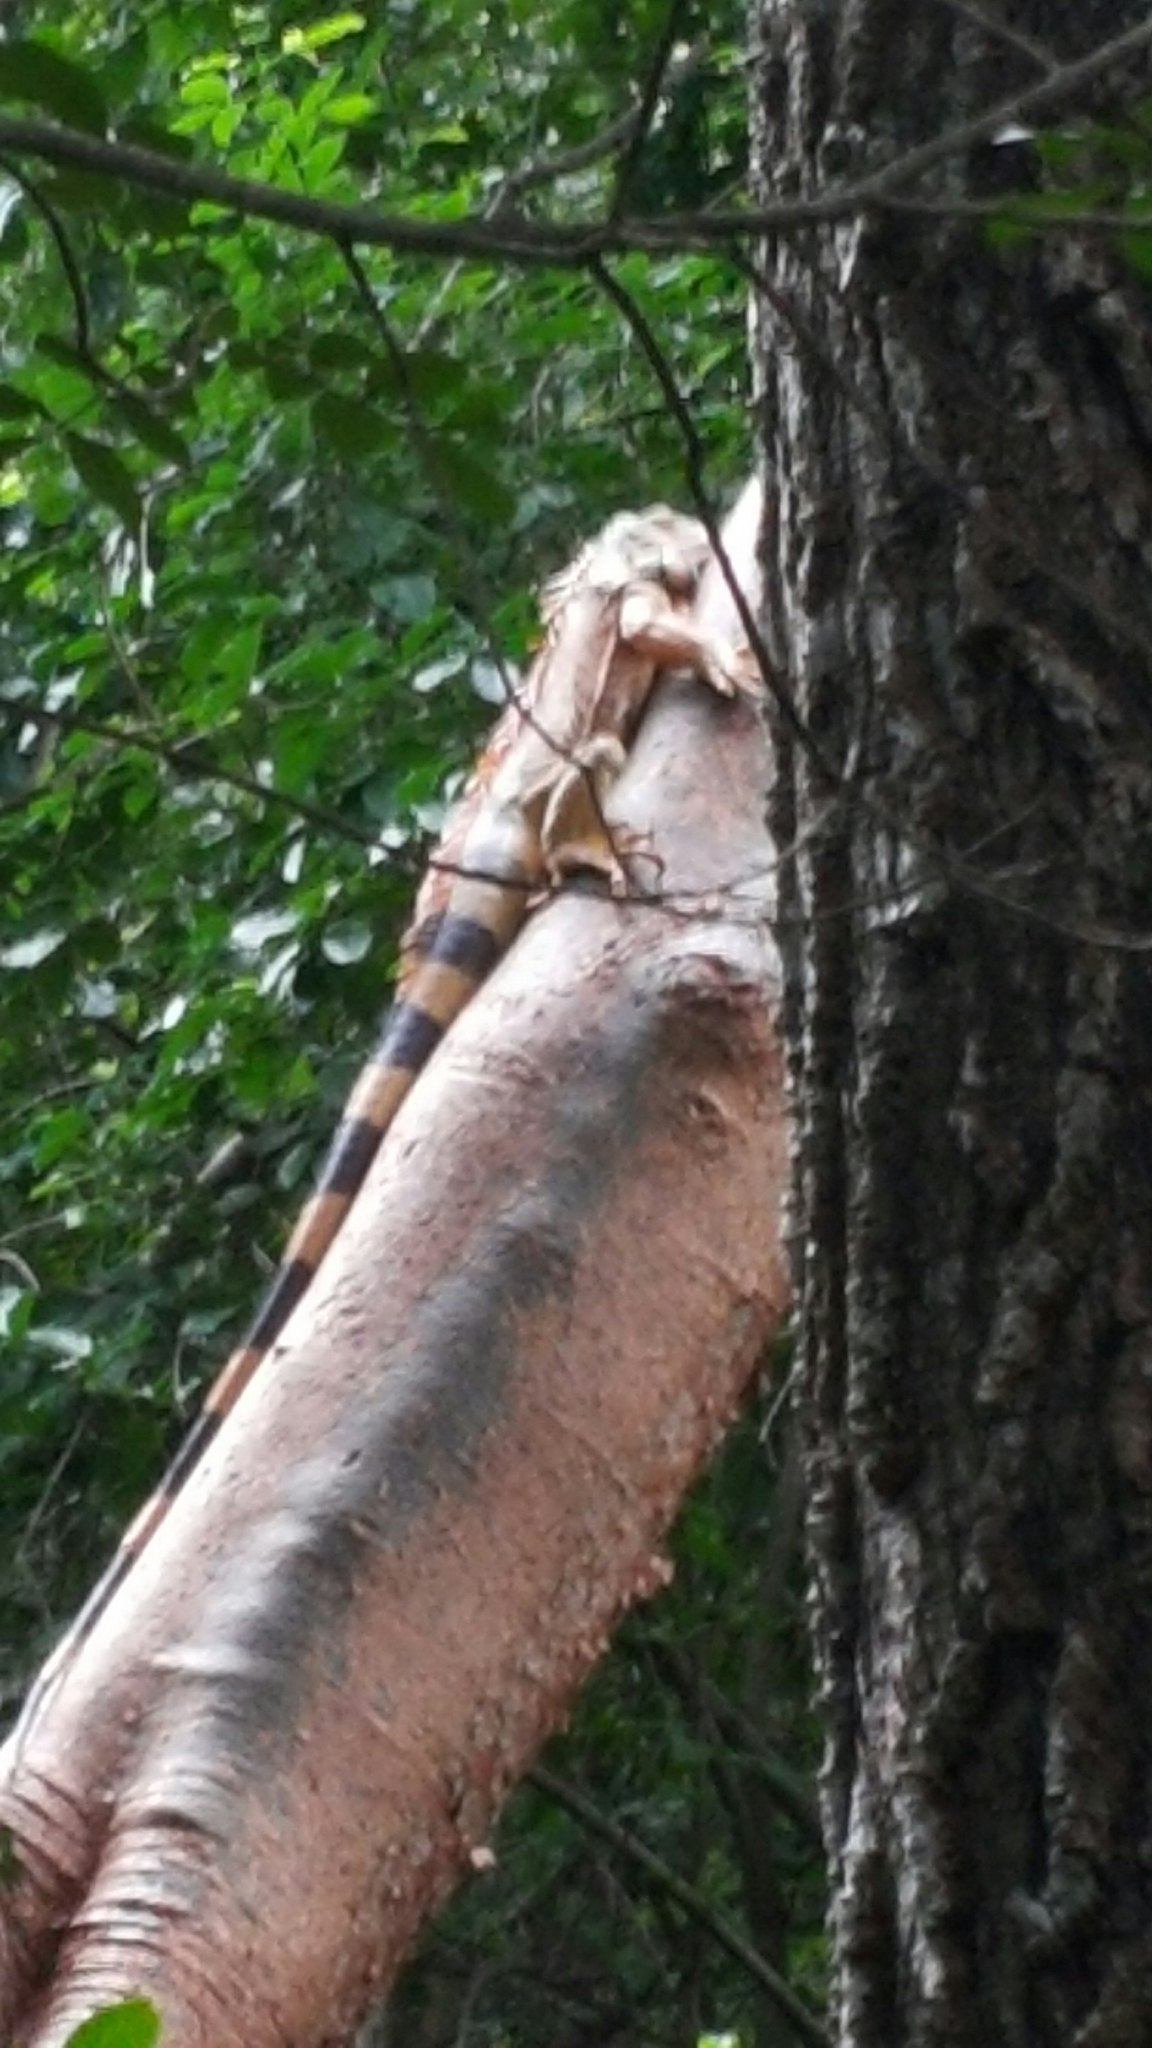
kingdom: Animalia
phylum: Chordata
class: Squamata
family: Iguanidae
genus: Iguana
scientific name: Iguana iguana
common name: Green iguana
